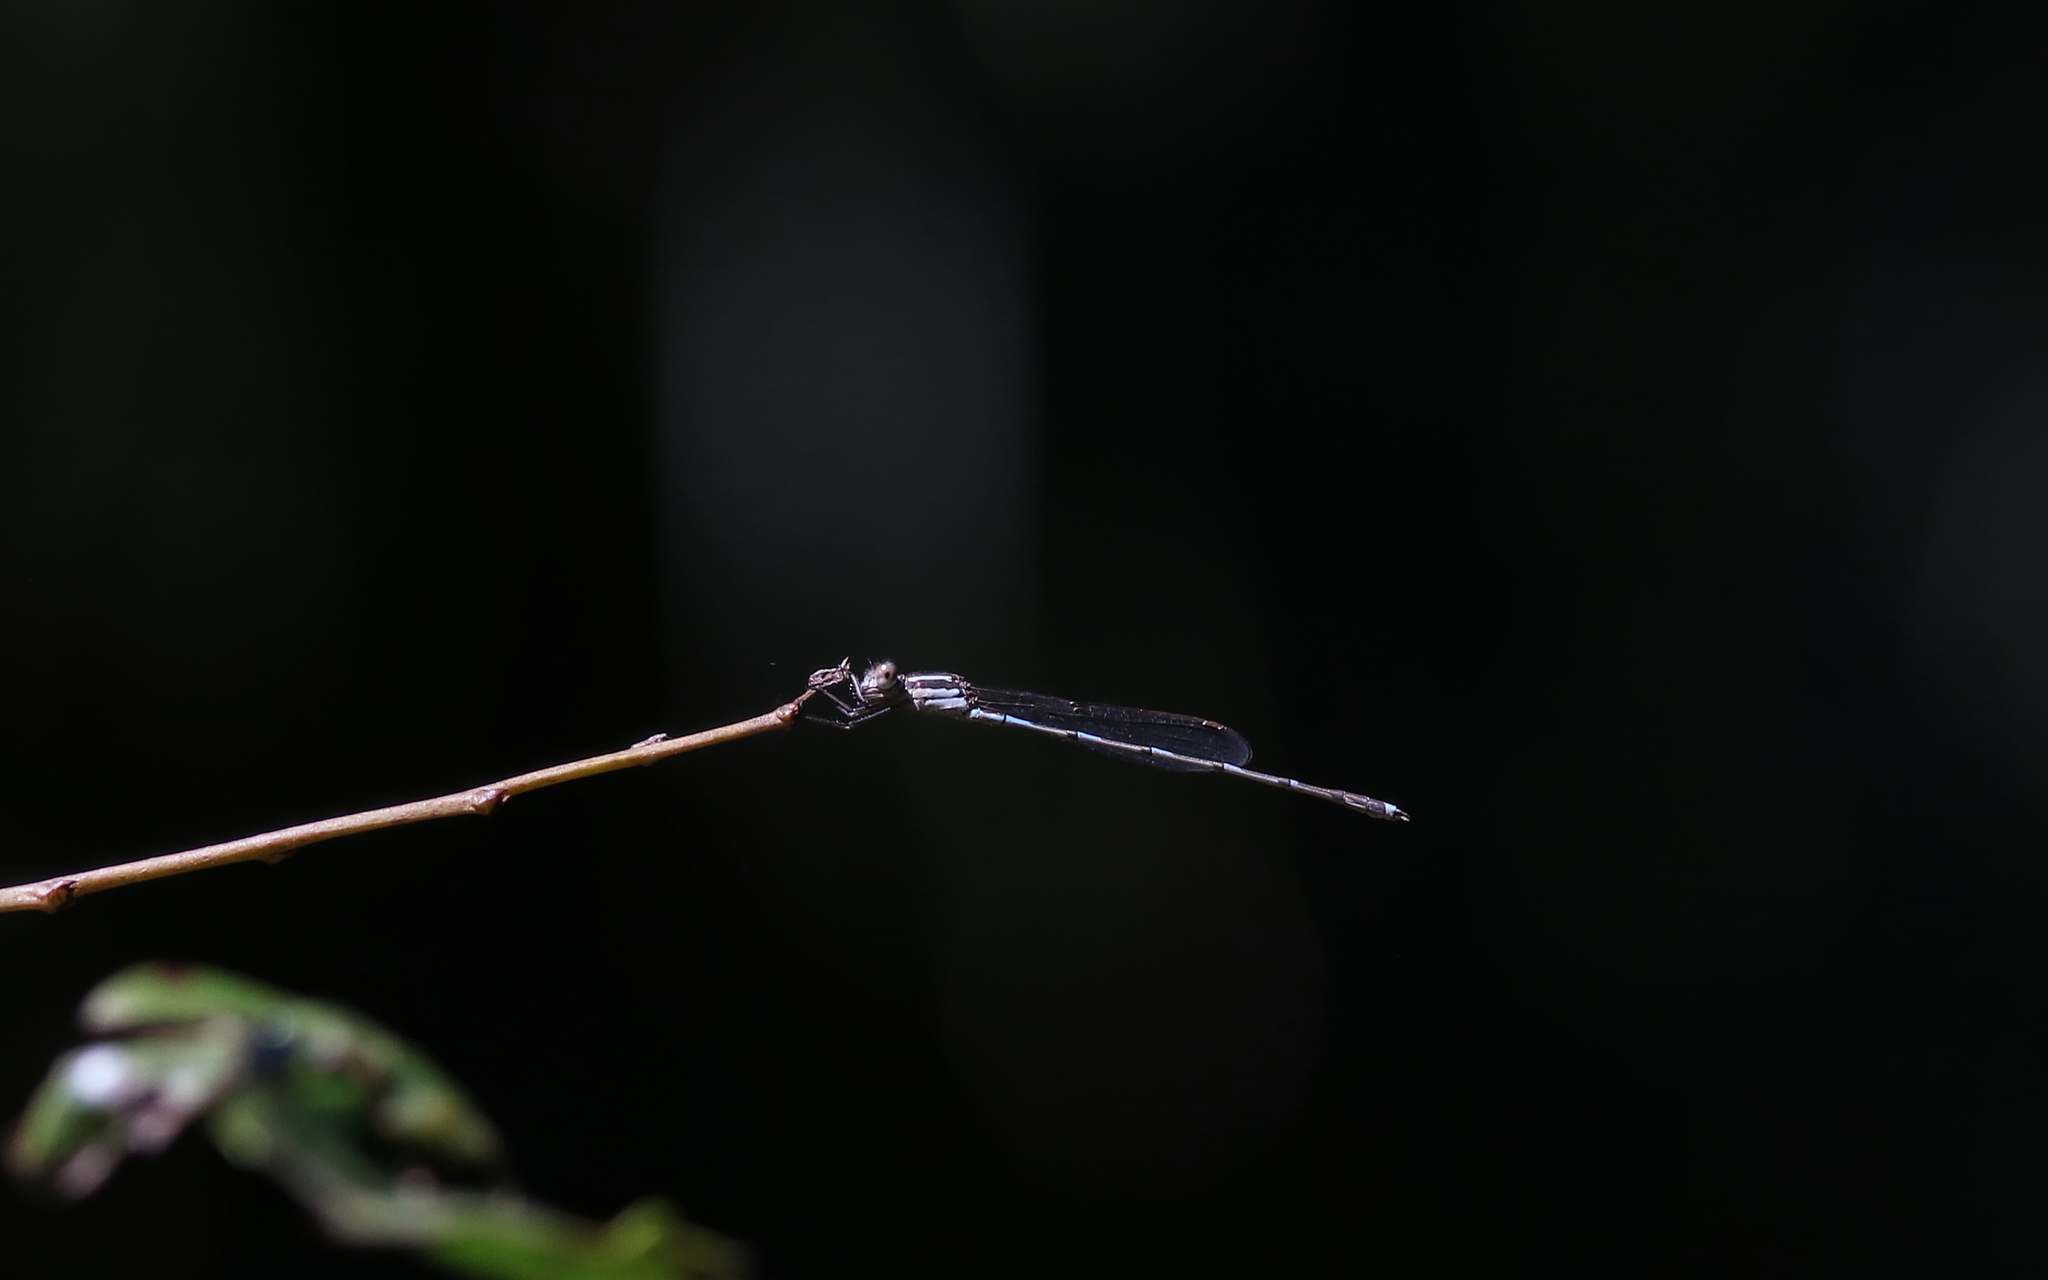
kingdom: Animalia
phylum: Arthropoda
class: Insecta
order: Odonata
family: Lestidae
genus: Austrolestes
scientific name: Austrolestes leda
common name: Wandering ringtail
